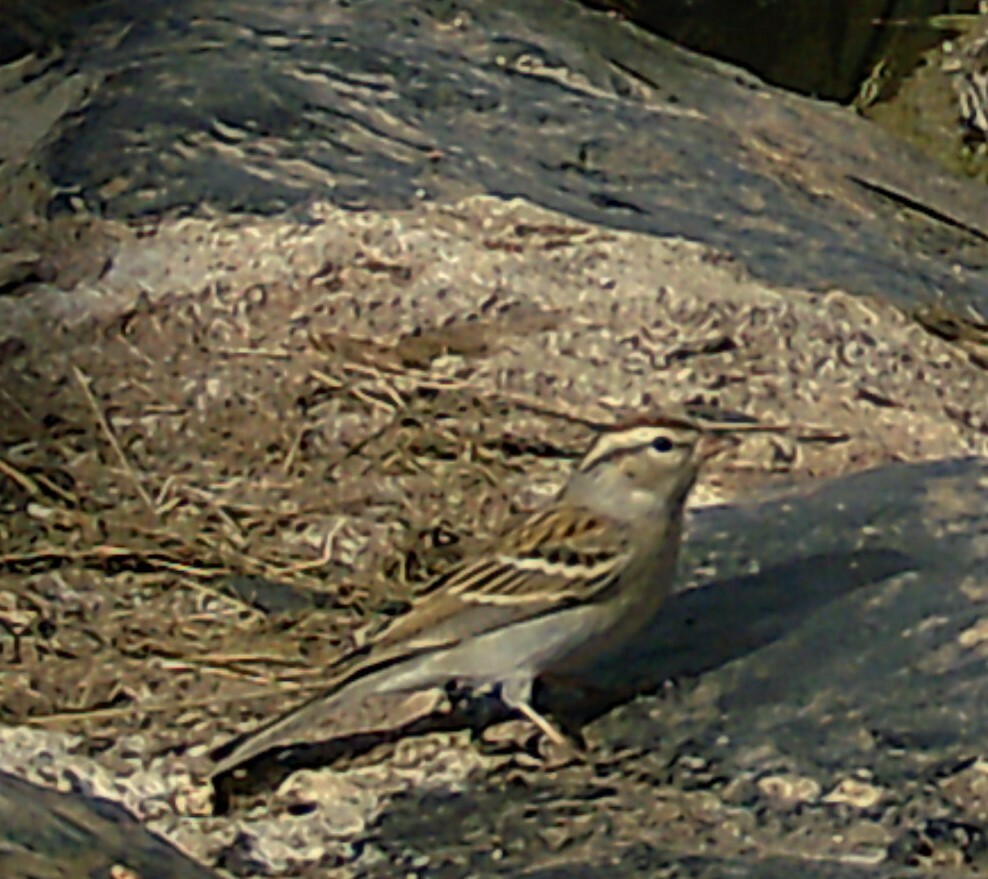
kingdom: Animalia
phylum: Chordata
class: Aves
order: Passeriformes
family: Passerellidae
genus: Spizella
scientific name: Spizella passerina
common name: Chipping sparrow
